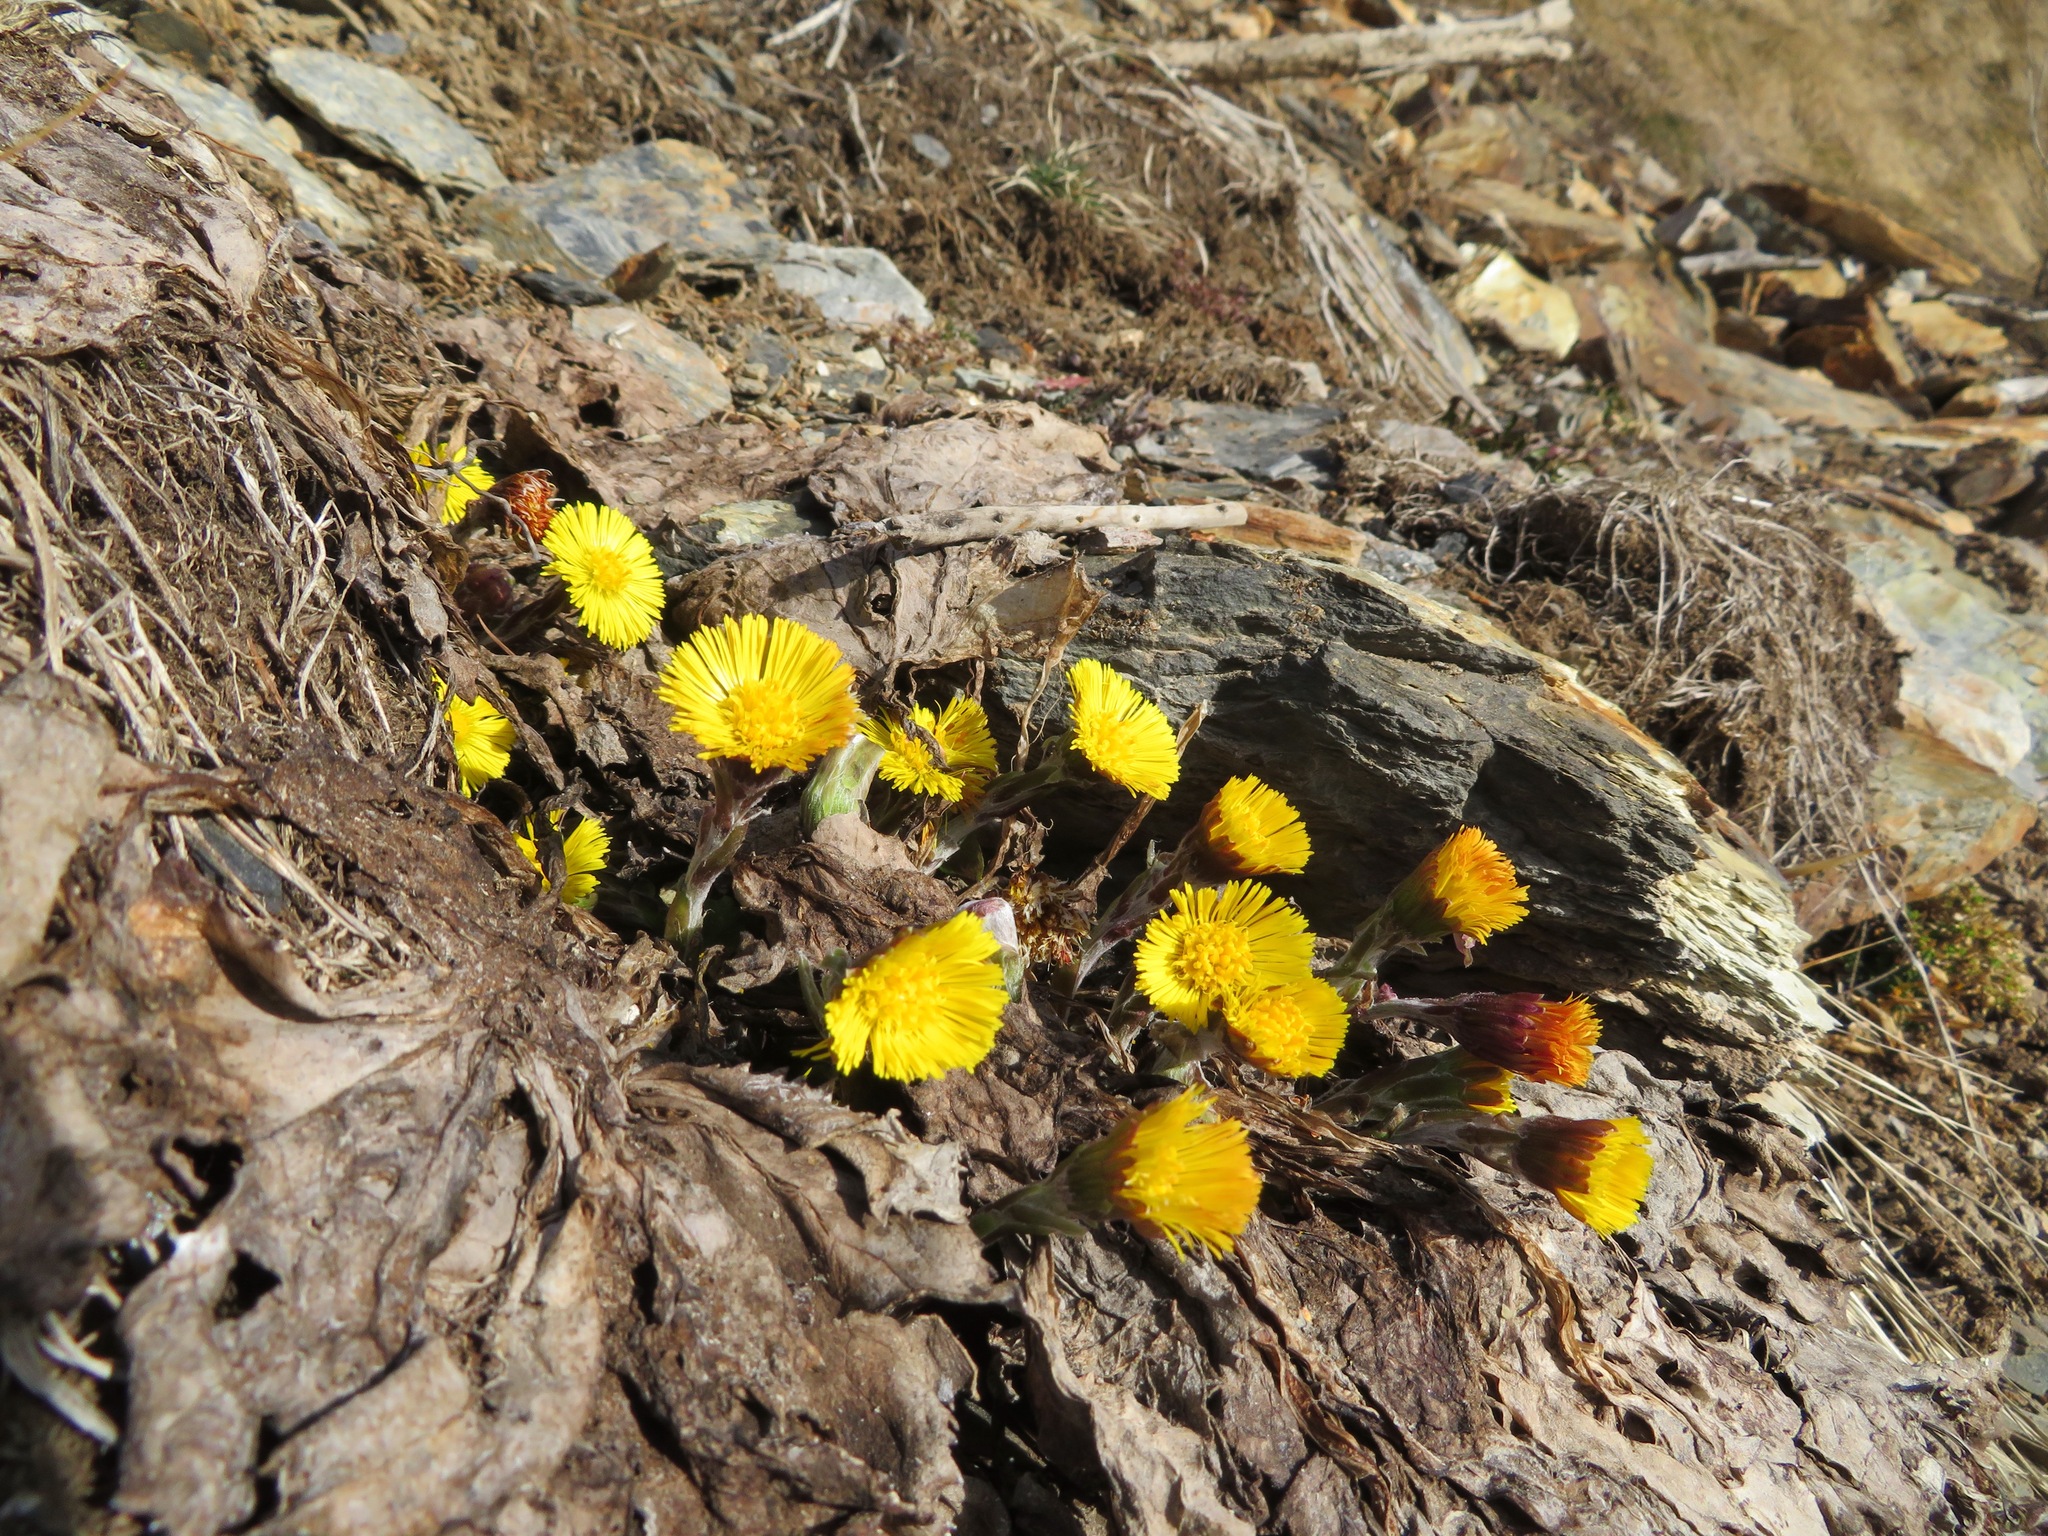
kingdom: Plantae
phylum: Tracheophyta
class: Magnoliopsida
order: Asterales
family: Asteraceae
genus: Tussilago
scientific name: Tussilago farfara
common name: Coltsfoot
